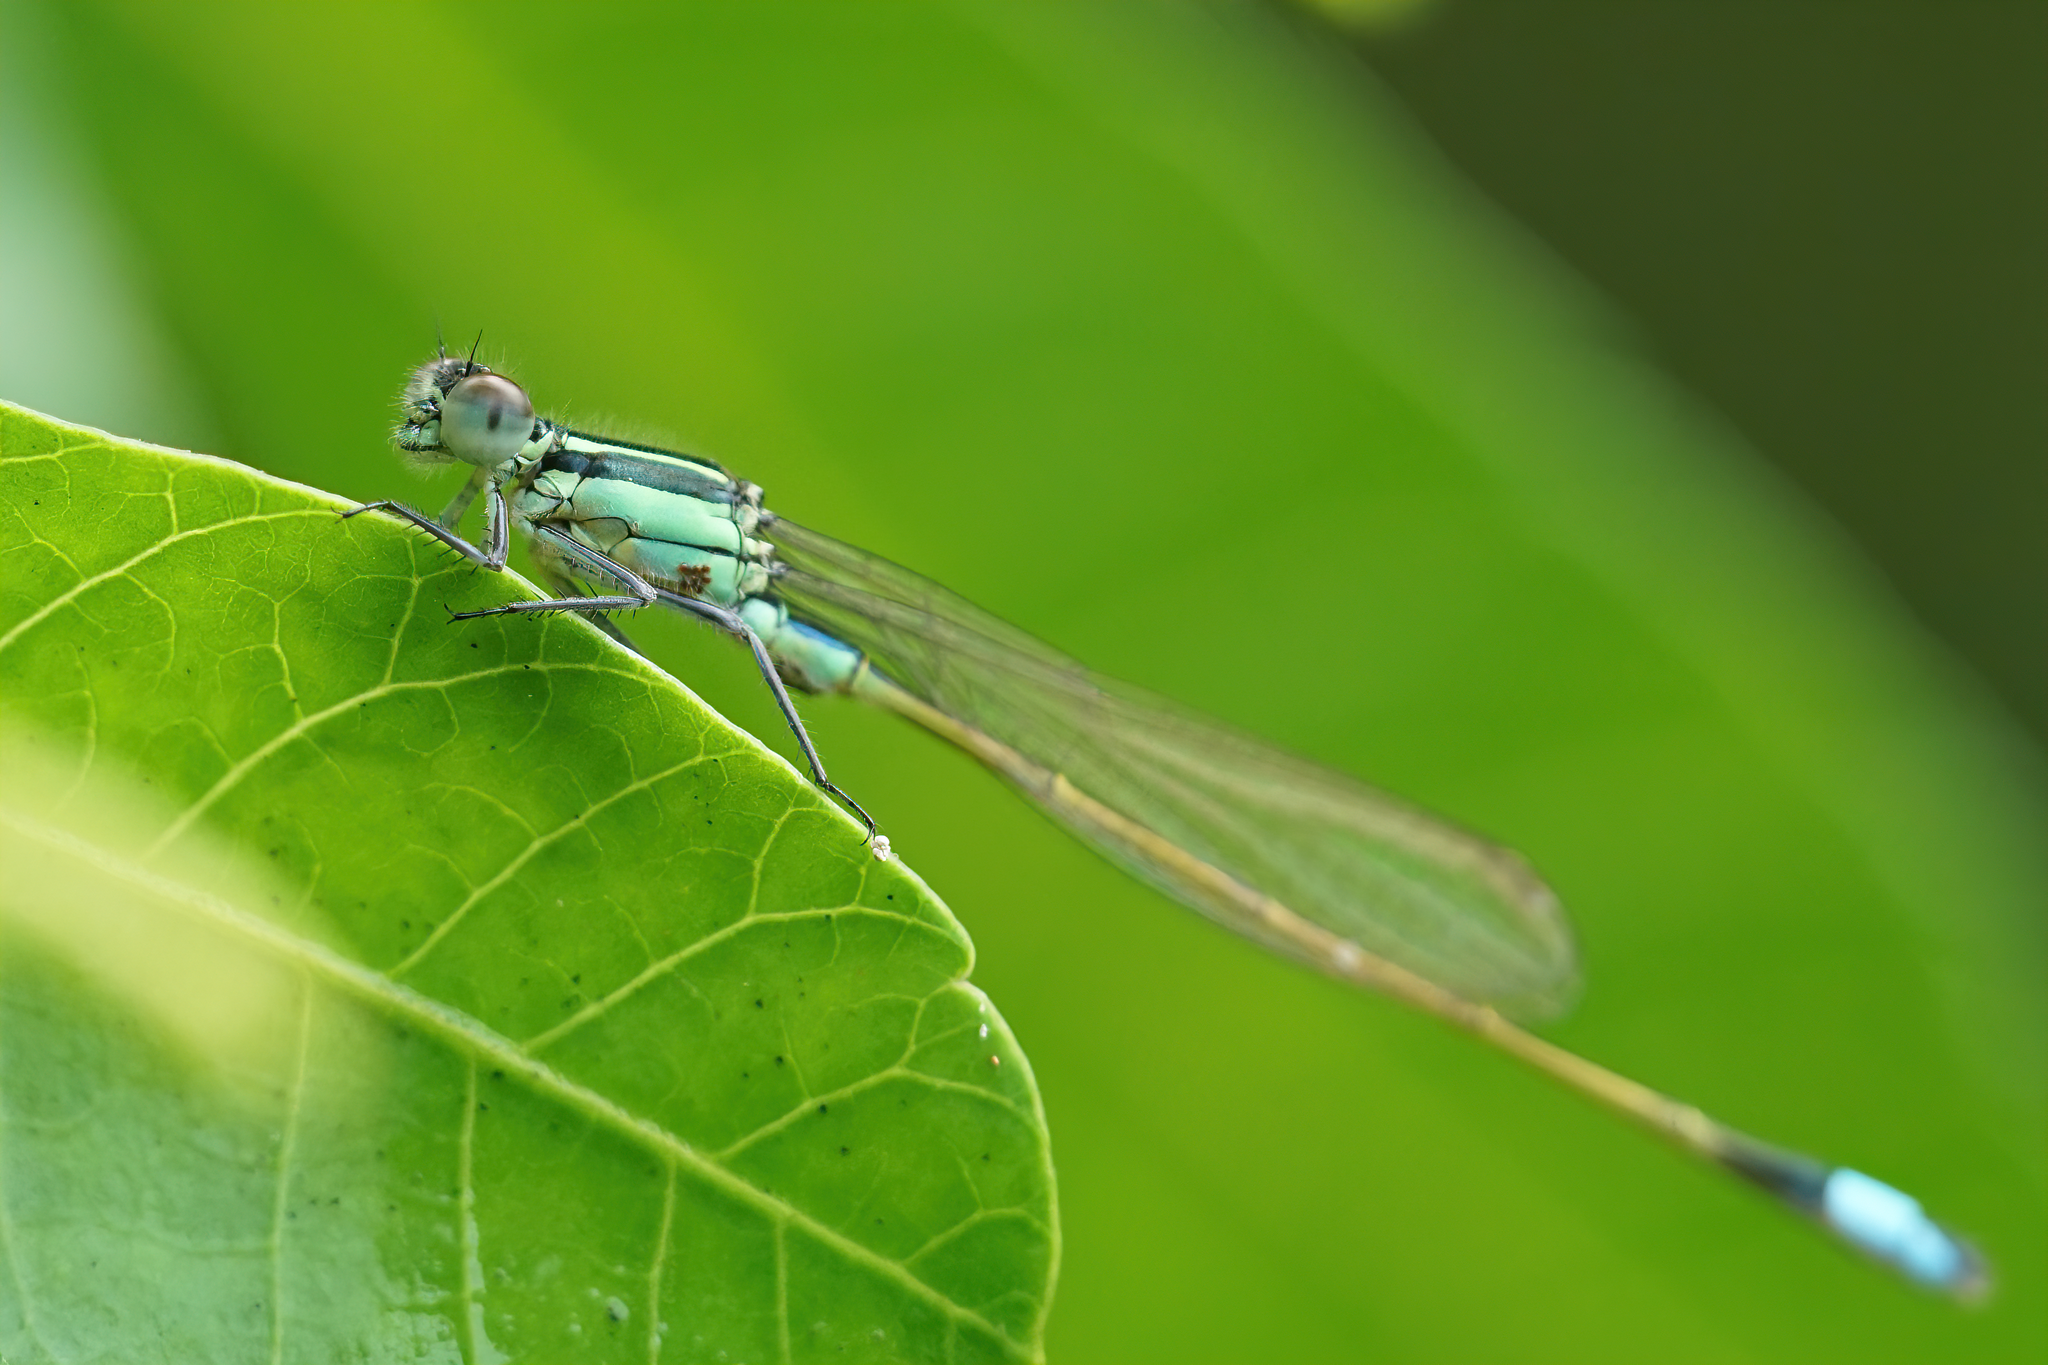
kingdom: Animalia
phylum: Arthropoda
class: Insecta
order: Odonata
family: Coenagrionidae
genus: Ischnura
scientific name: Ischnura ramburii
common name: Rambur's forktail
